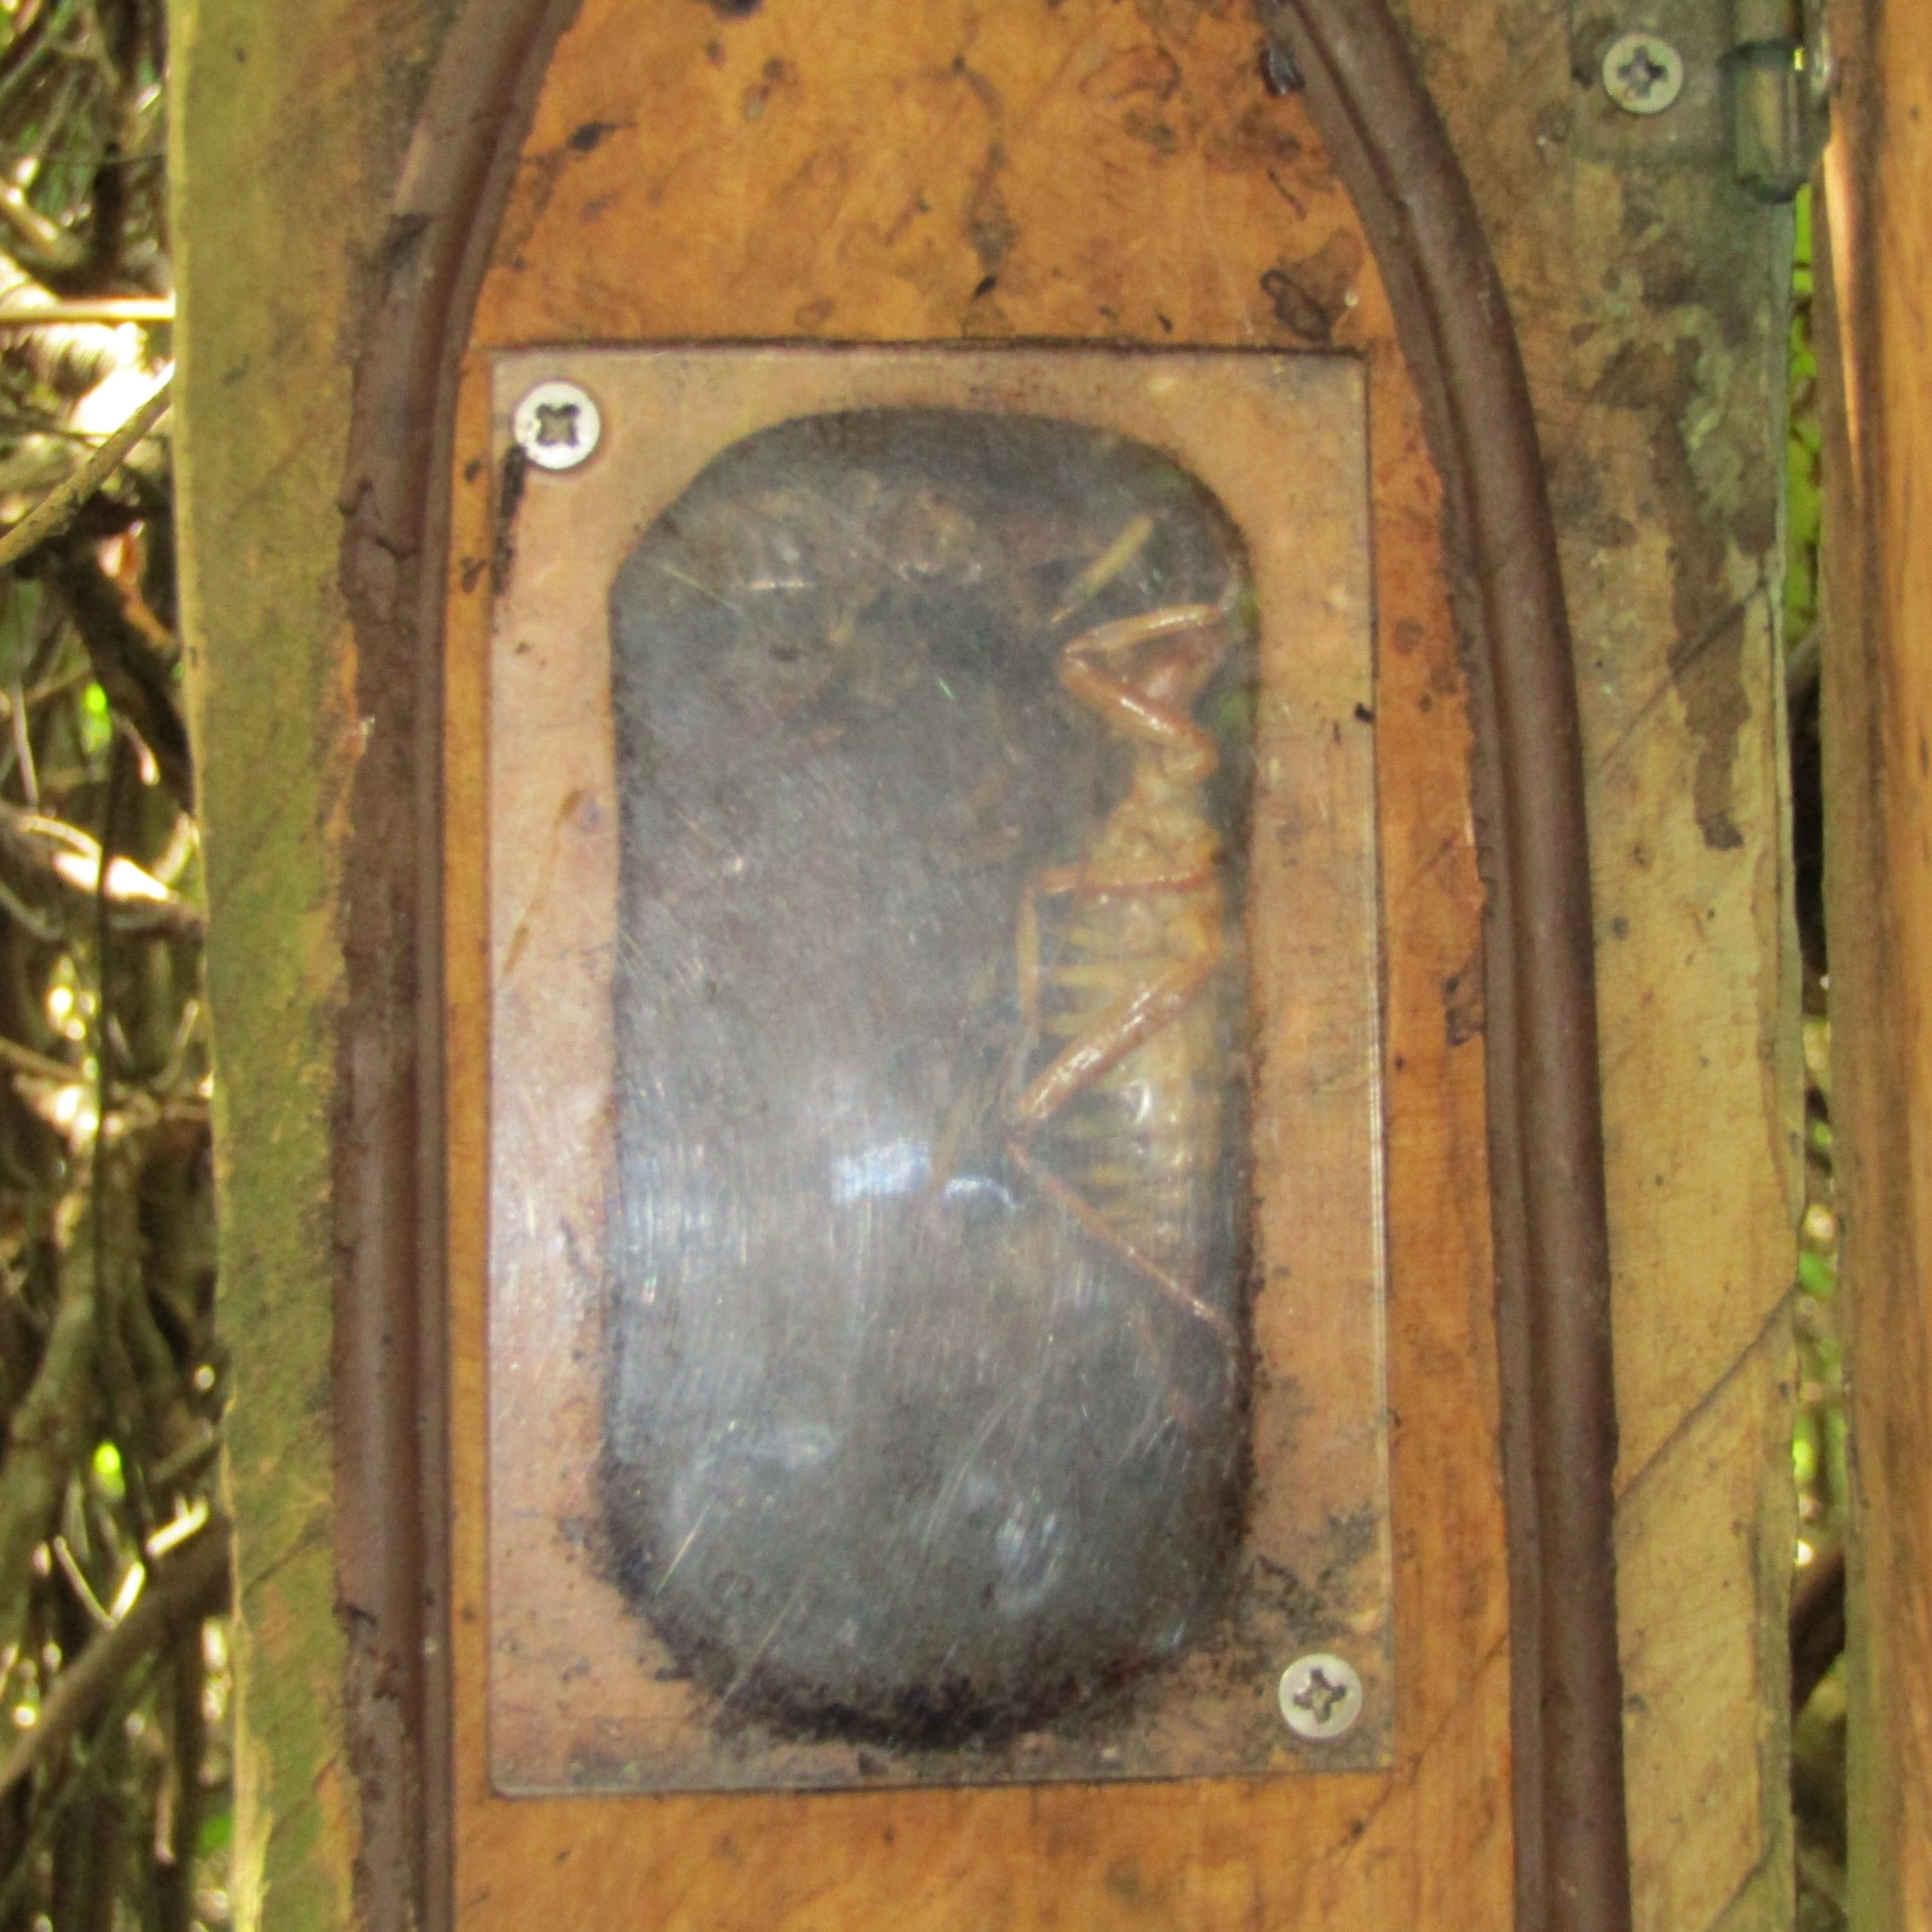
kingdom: Animalia
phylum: Arthropoda
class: Insecta
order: Orthoptera
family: Anostostomatidae
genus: Hemideina
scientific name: Hemideina crassidens
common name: Wellington tree weta
